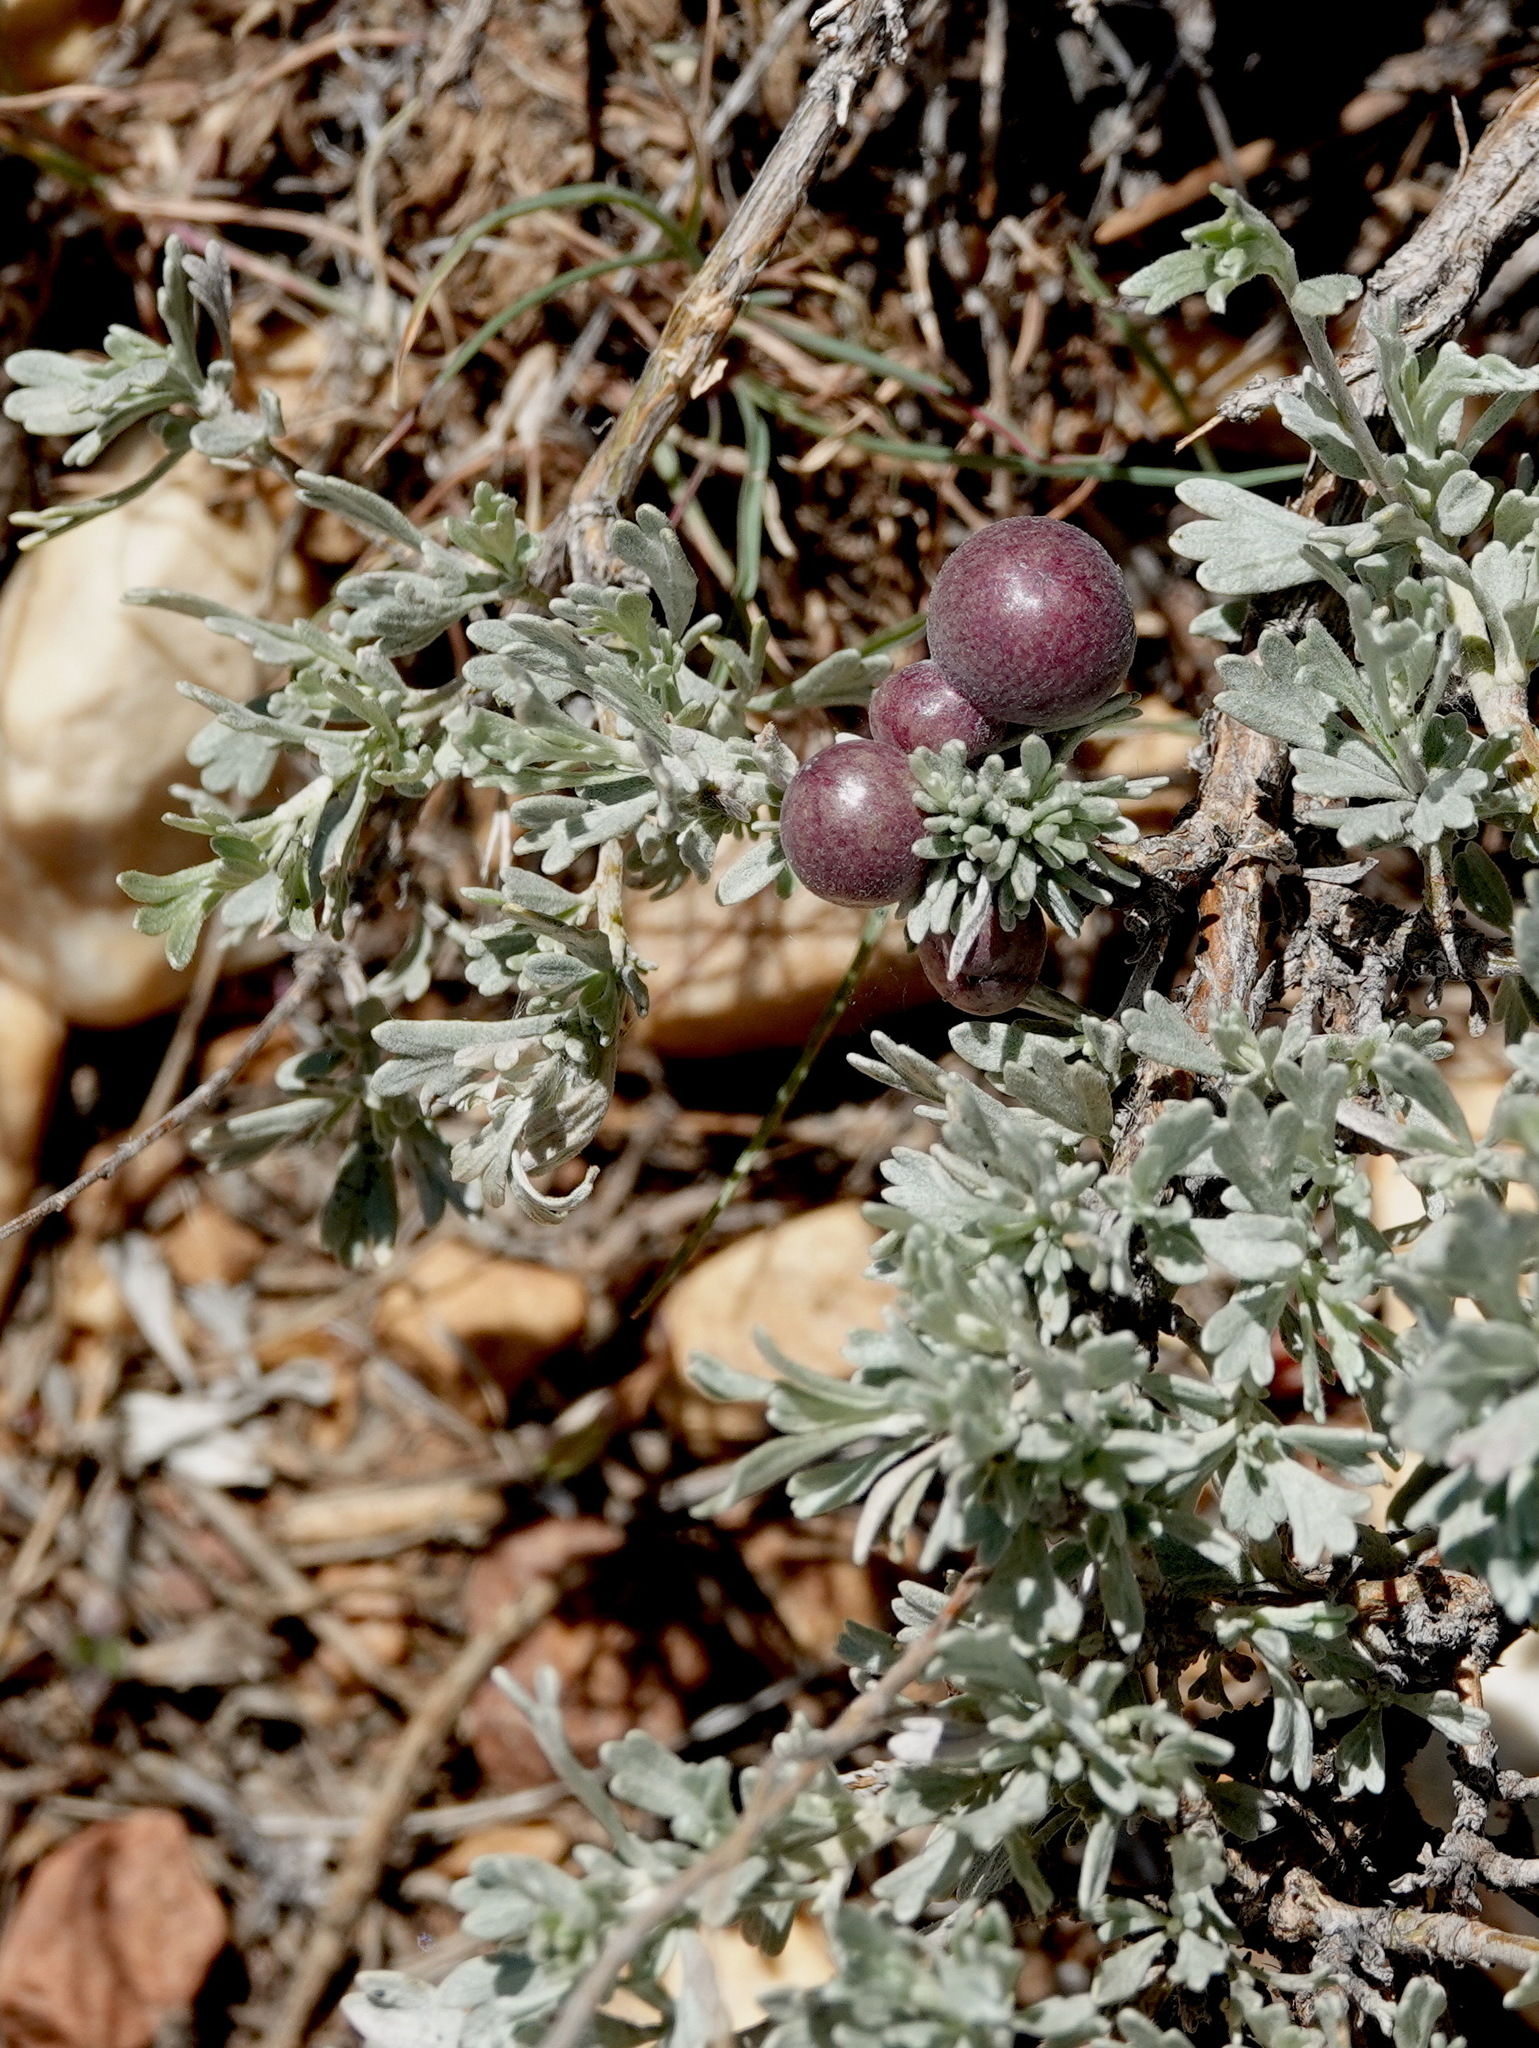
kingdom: Plantae
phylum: Tracheophyta
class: Magnoliopsida
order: Asterales
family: Asteraceae
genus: Artemisia
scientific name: Artemisia tridentata
